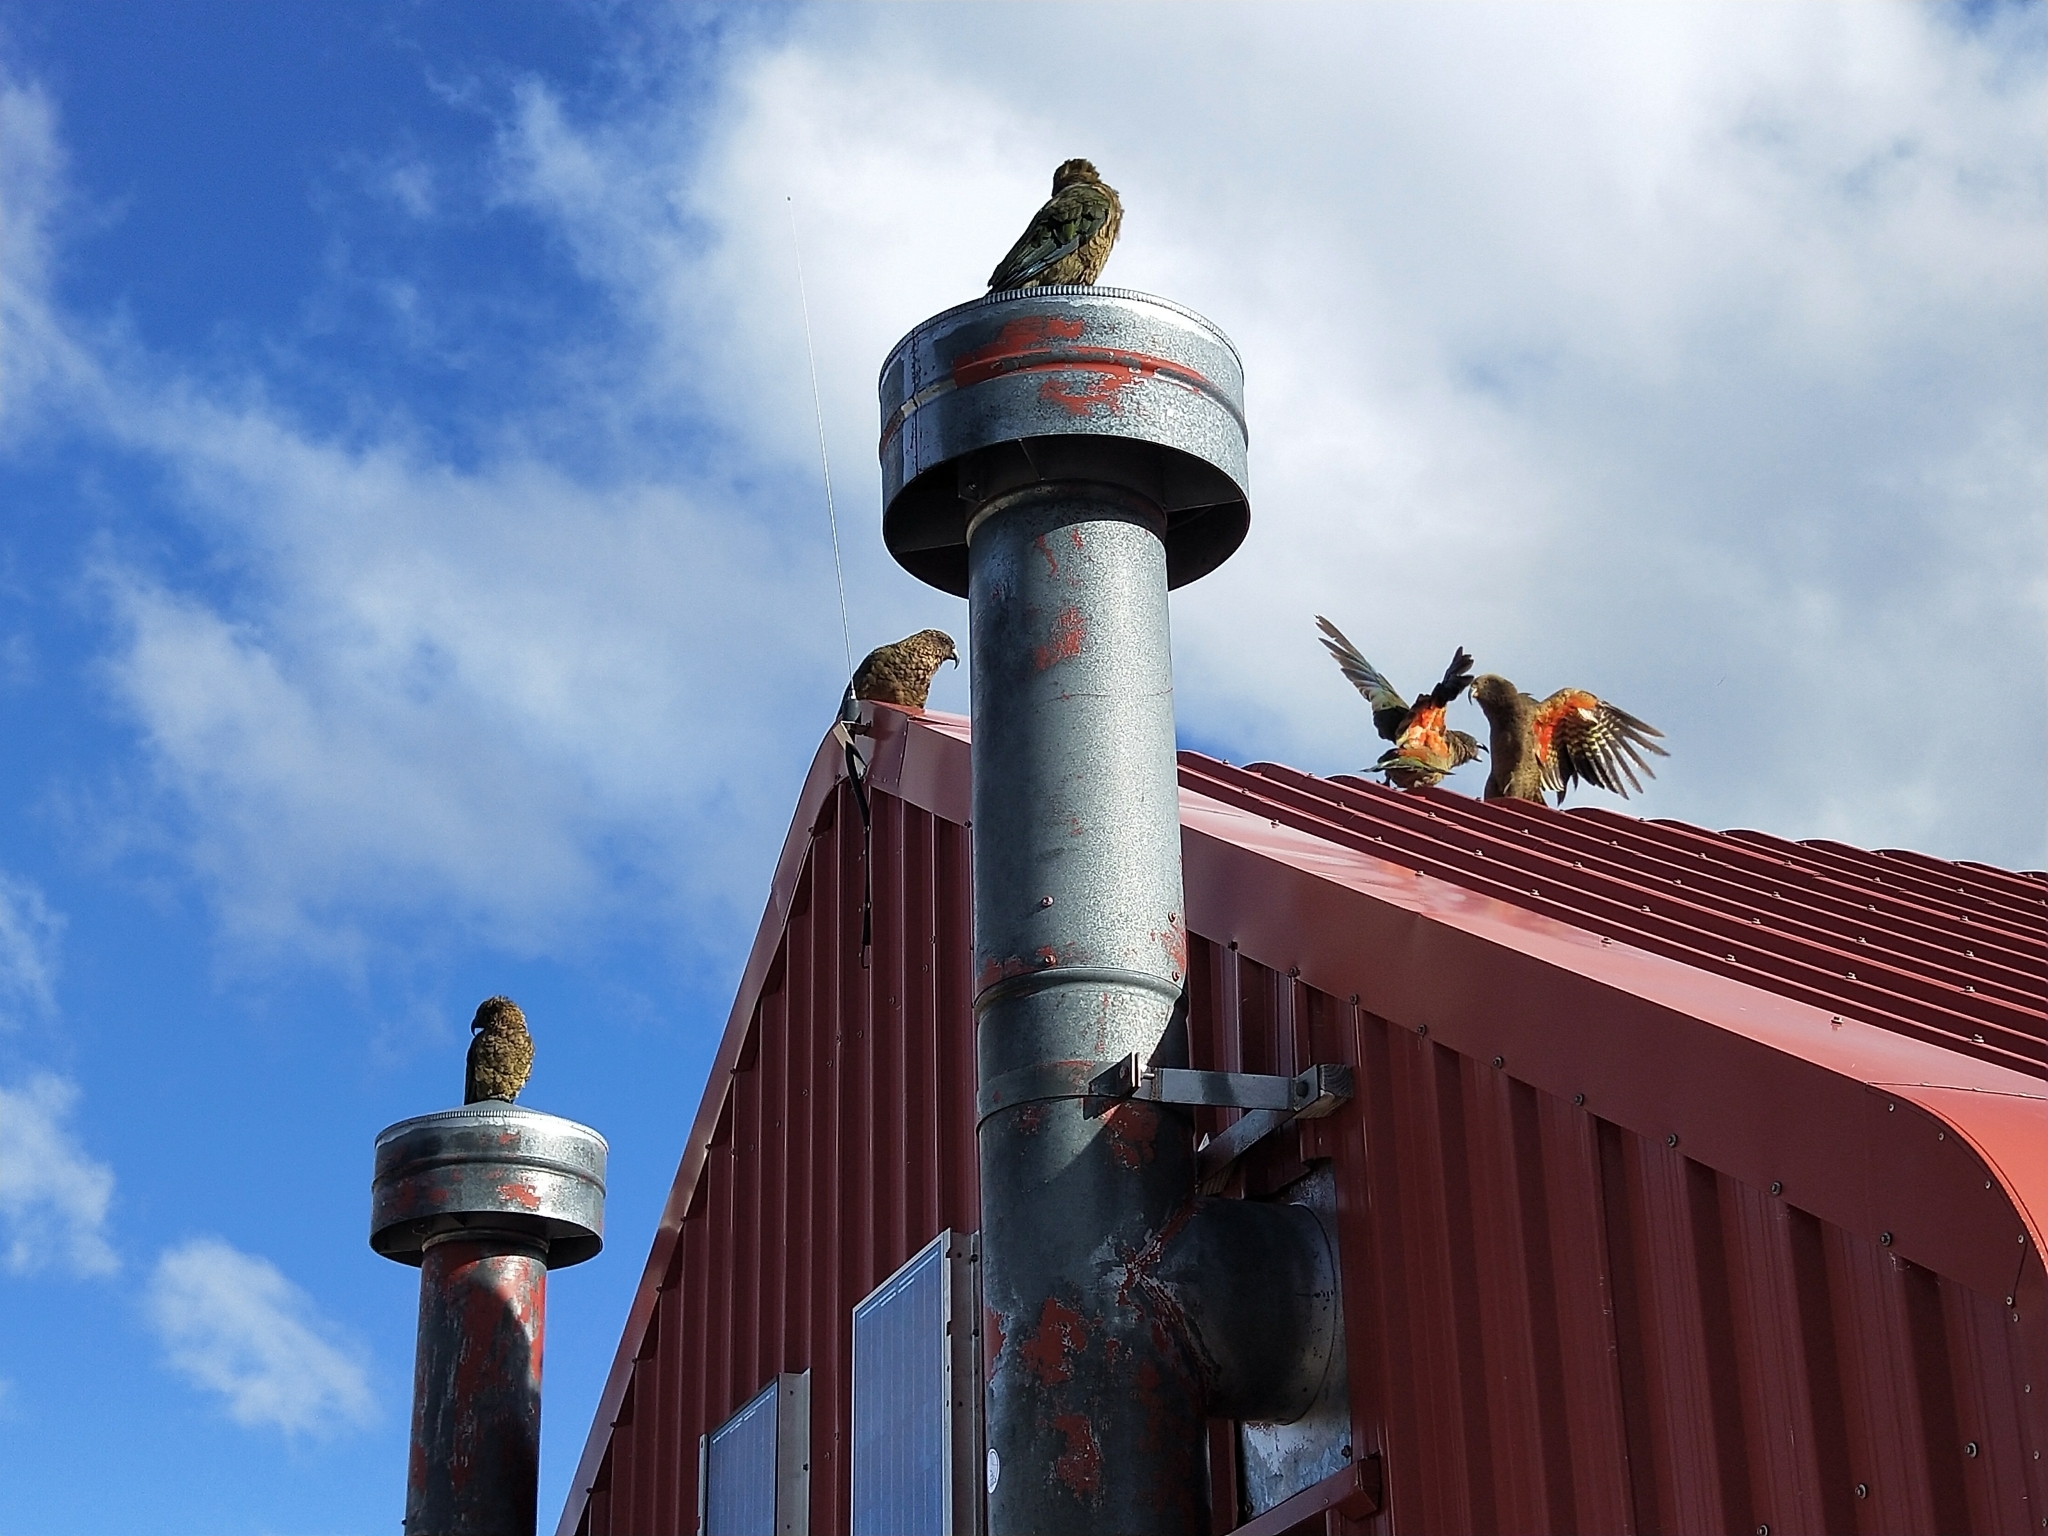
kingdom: Animalia
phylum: Chordata
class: Aves
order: Psittaciformes
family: Psittacidae
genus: Nestor
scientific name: Nestor notabilis
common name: Kea
